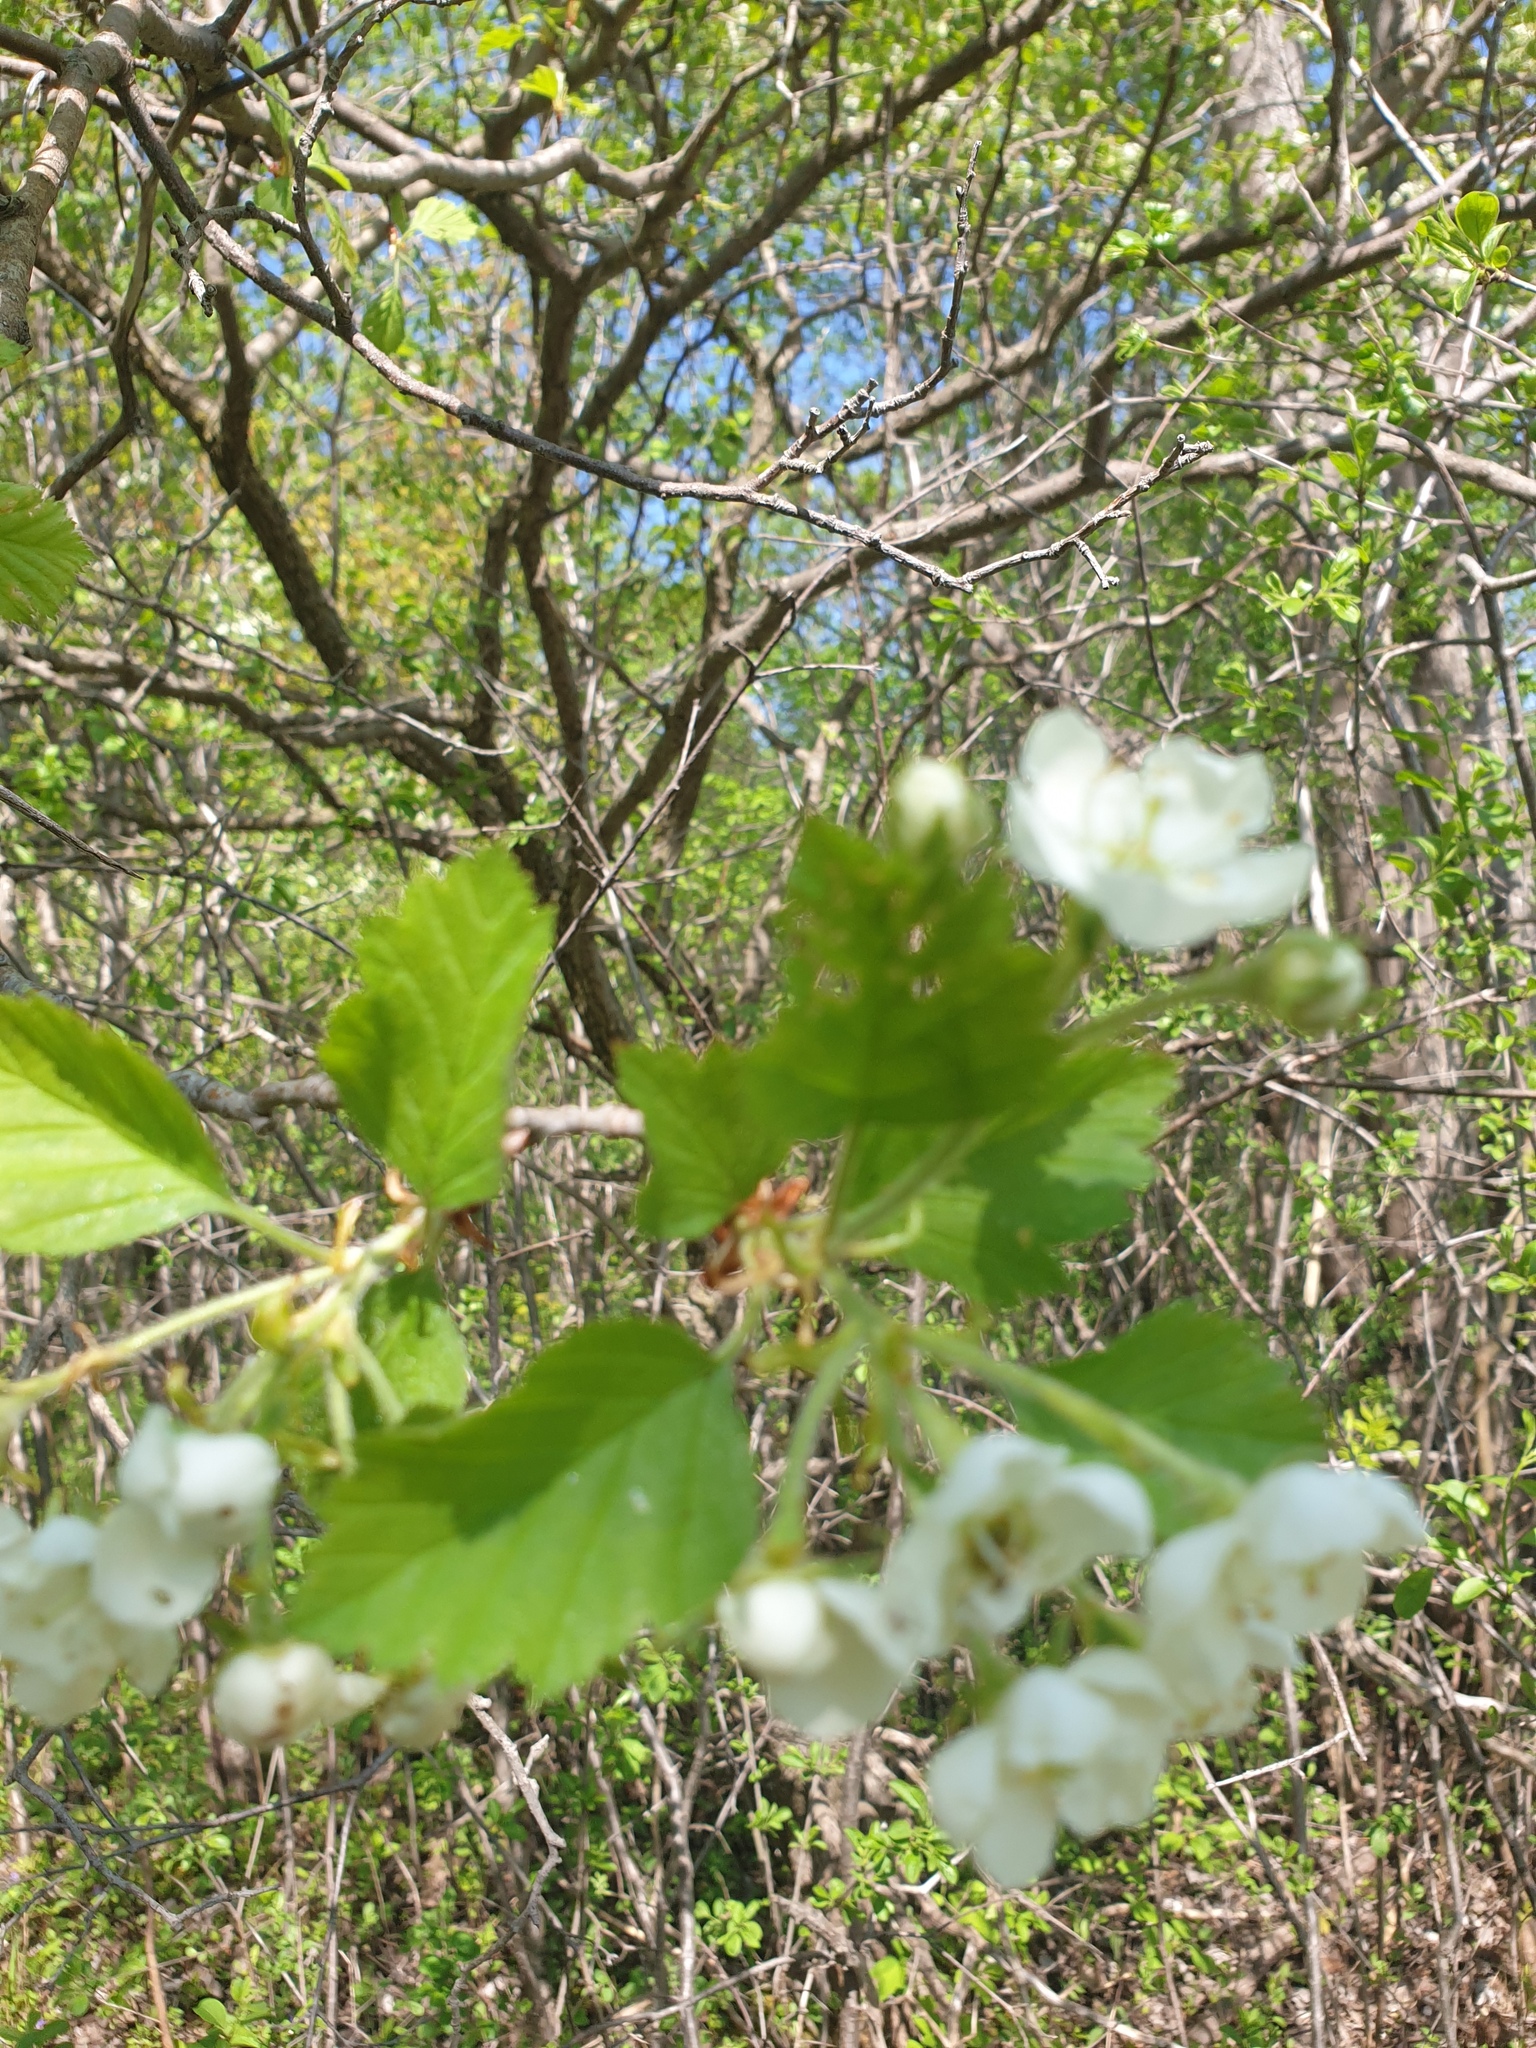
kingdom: Plantae
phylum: Tracheophyta
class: Magnoliopsida
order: Rosales
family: Rosaceae
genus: Crataegus
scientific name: Crataegus submollis
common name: Hairy cockspurthorn
